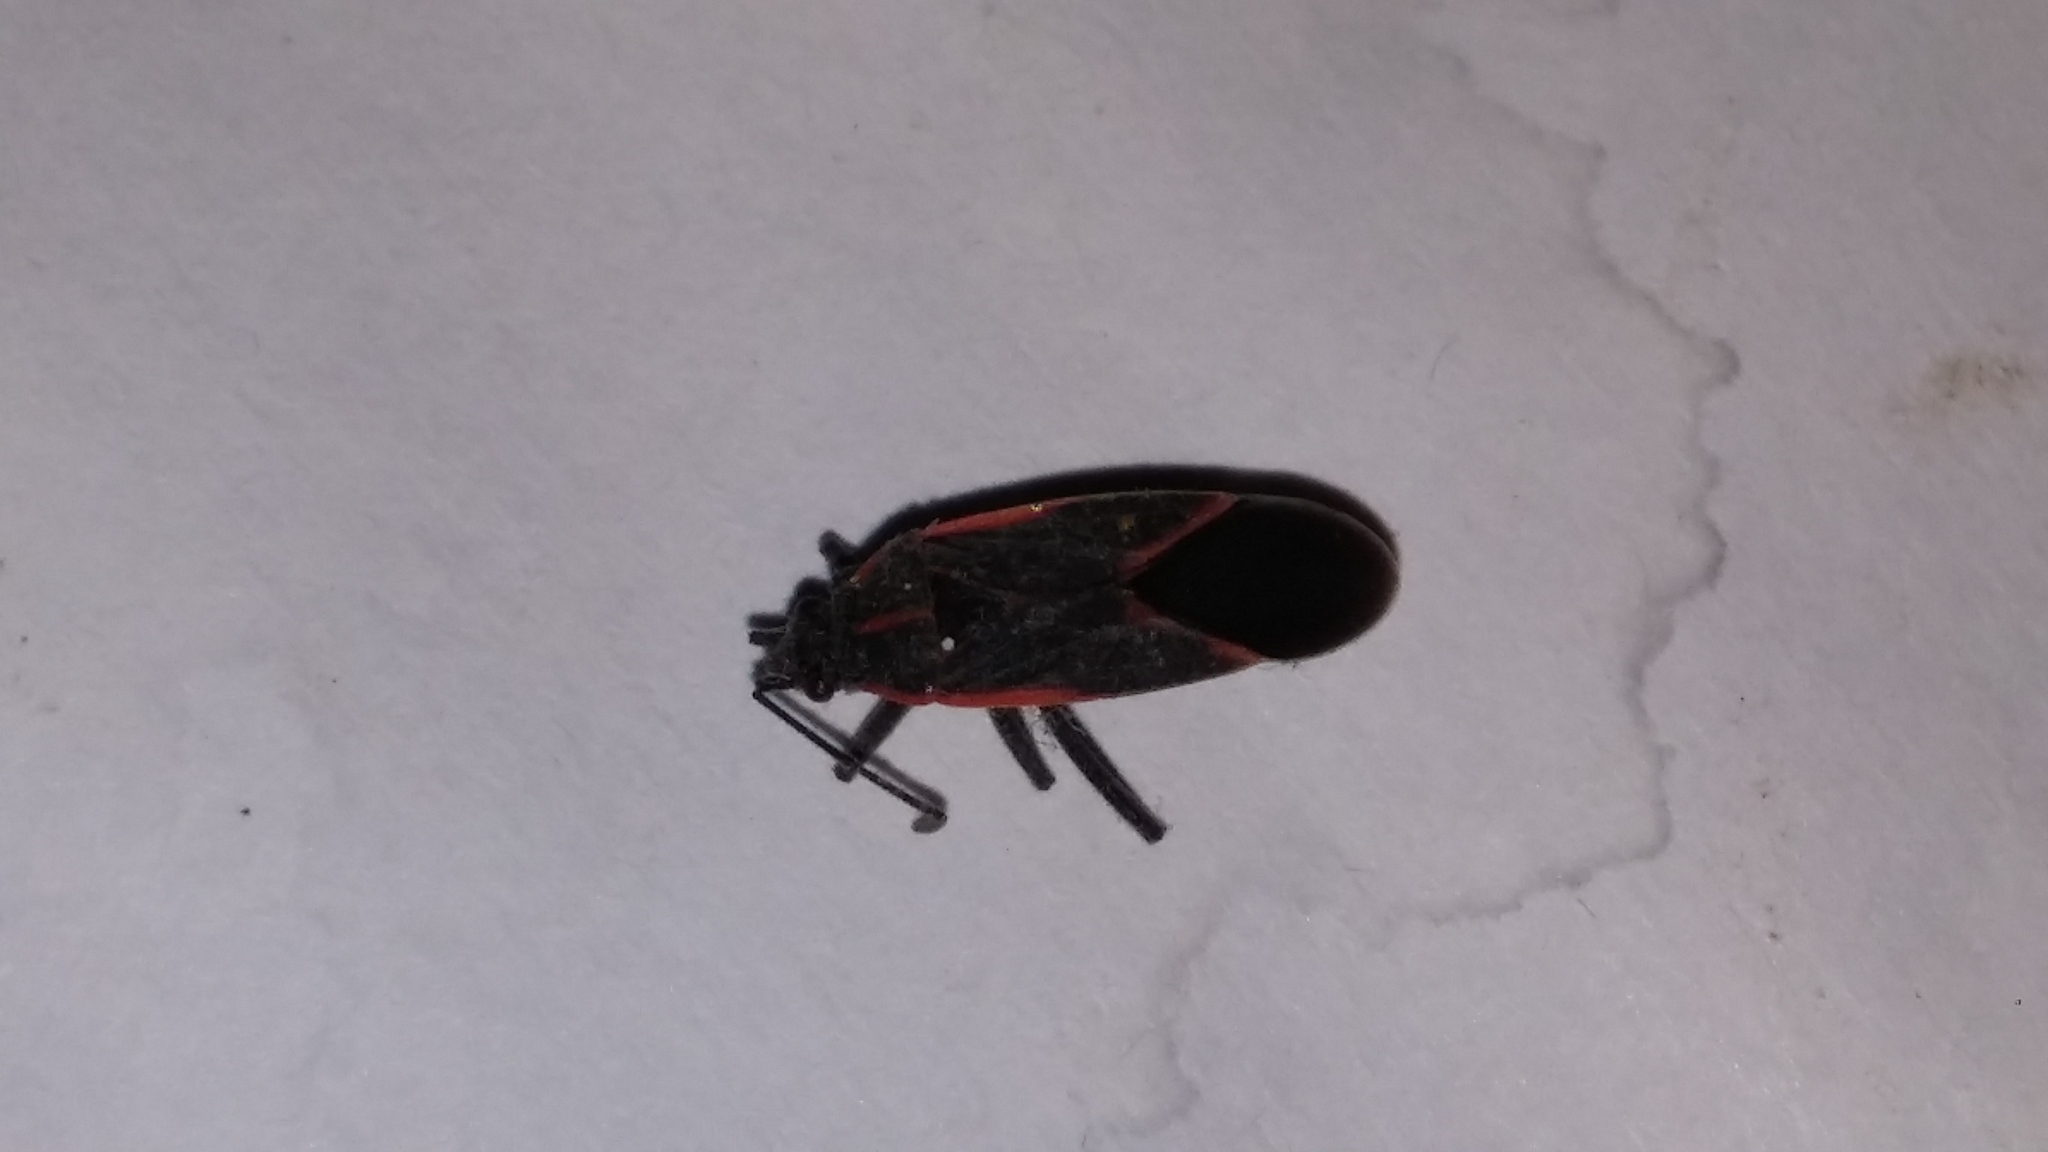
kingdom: Animalia
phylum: Arthropoda
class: Insecta
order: Hemiptera
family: Rhopalidae
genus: Boisea
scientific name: Boisea trivittata
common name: Boxelder bug
